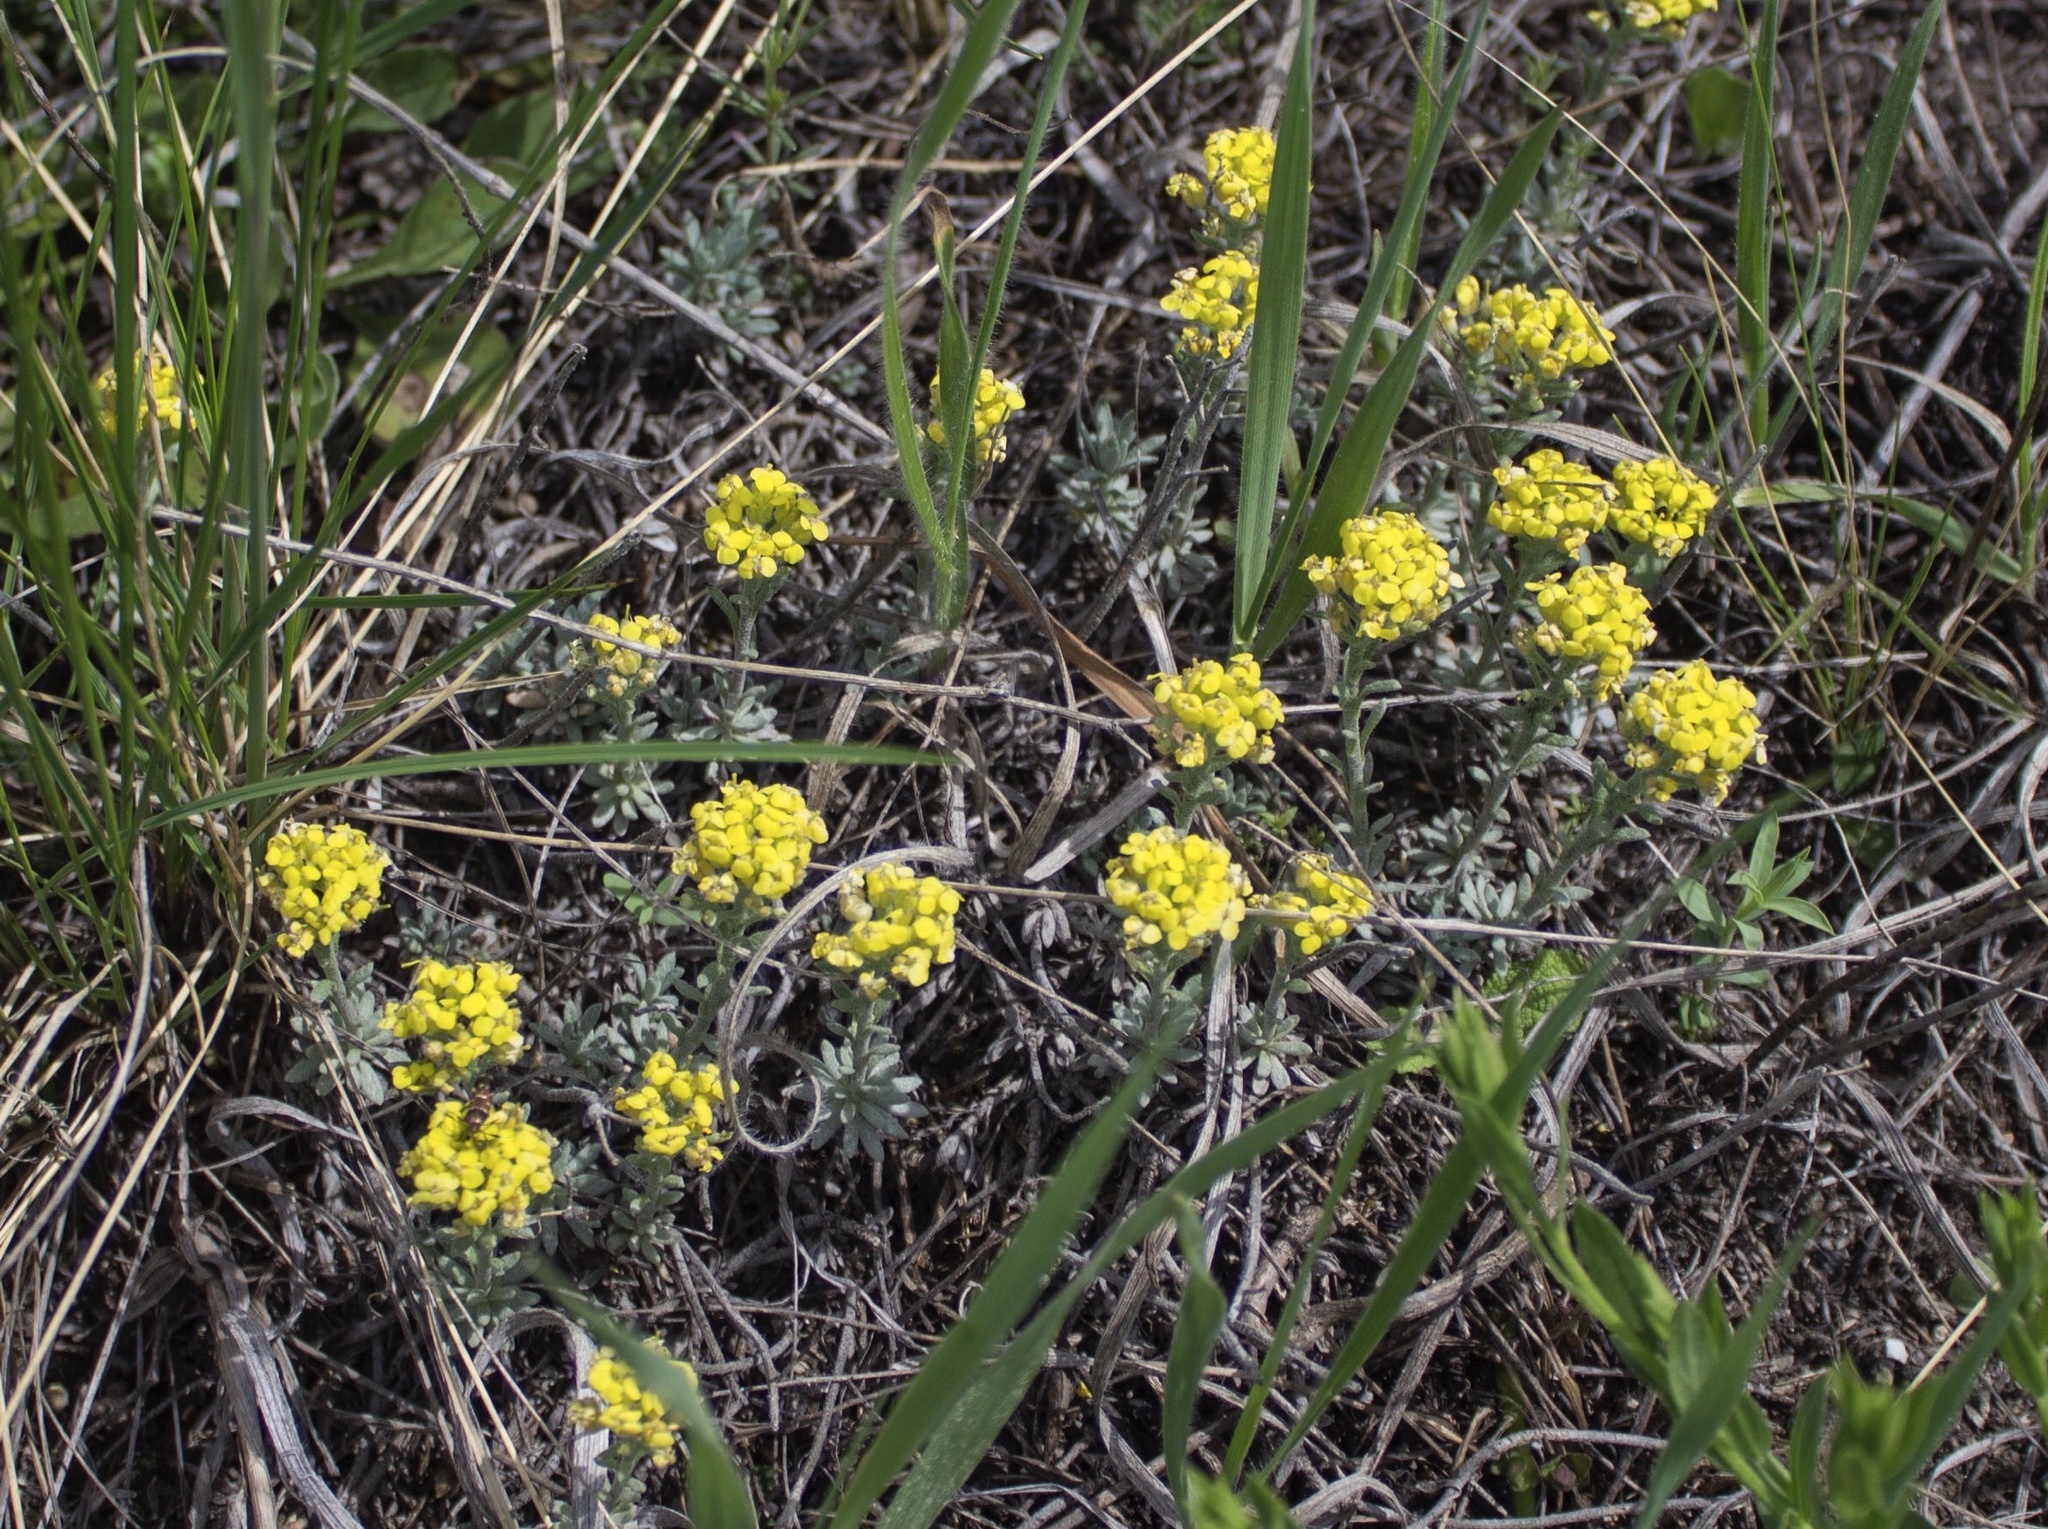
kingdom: Plantae
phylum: Tracheophyta
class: Magnoliopsida
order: Brassicales
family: Brassicaceae
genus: Alyssum
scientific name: Alyssum lenense
